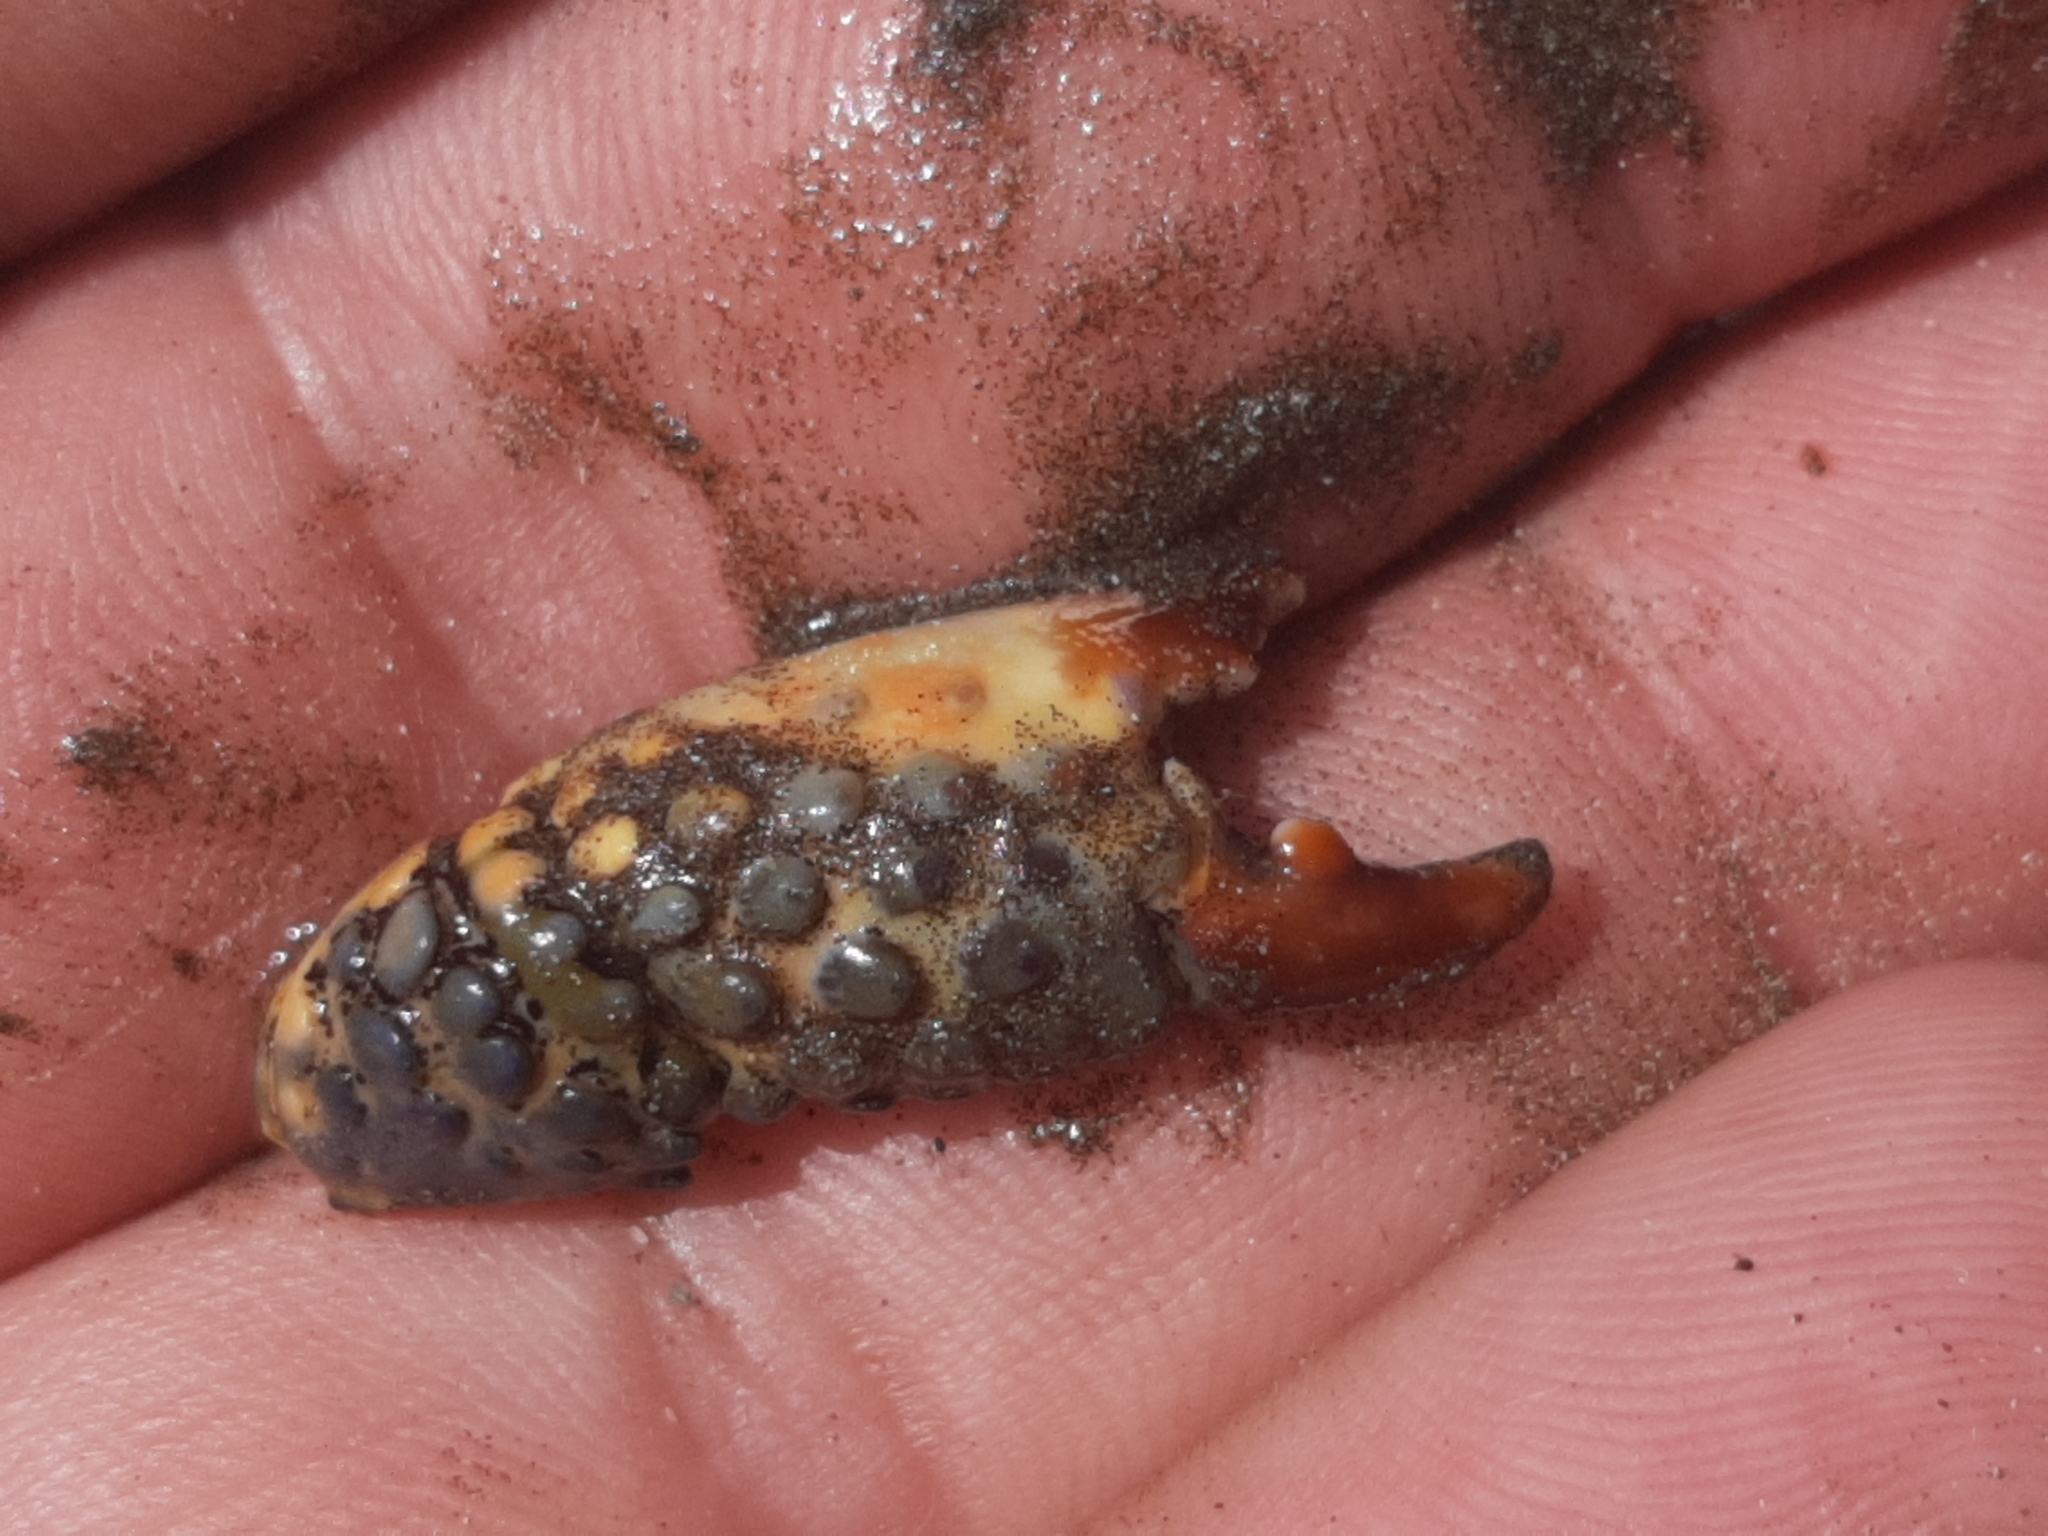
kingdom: Animalia
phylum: Arthropoda
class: Malacostraca
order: Decapoda
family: Eriphiidae
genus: Eriphia
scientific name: Eriphia squamata
